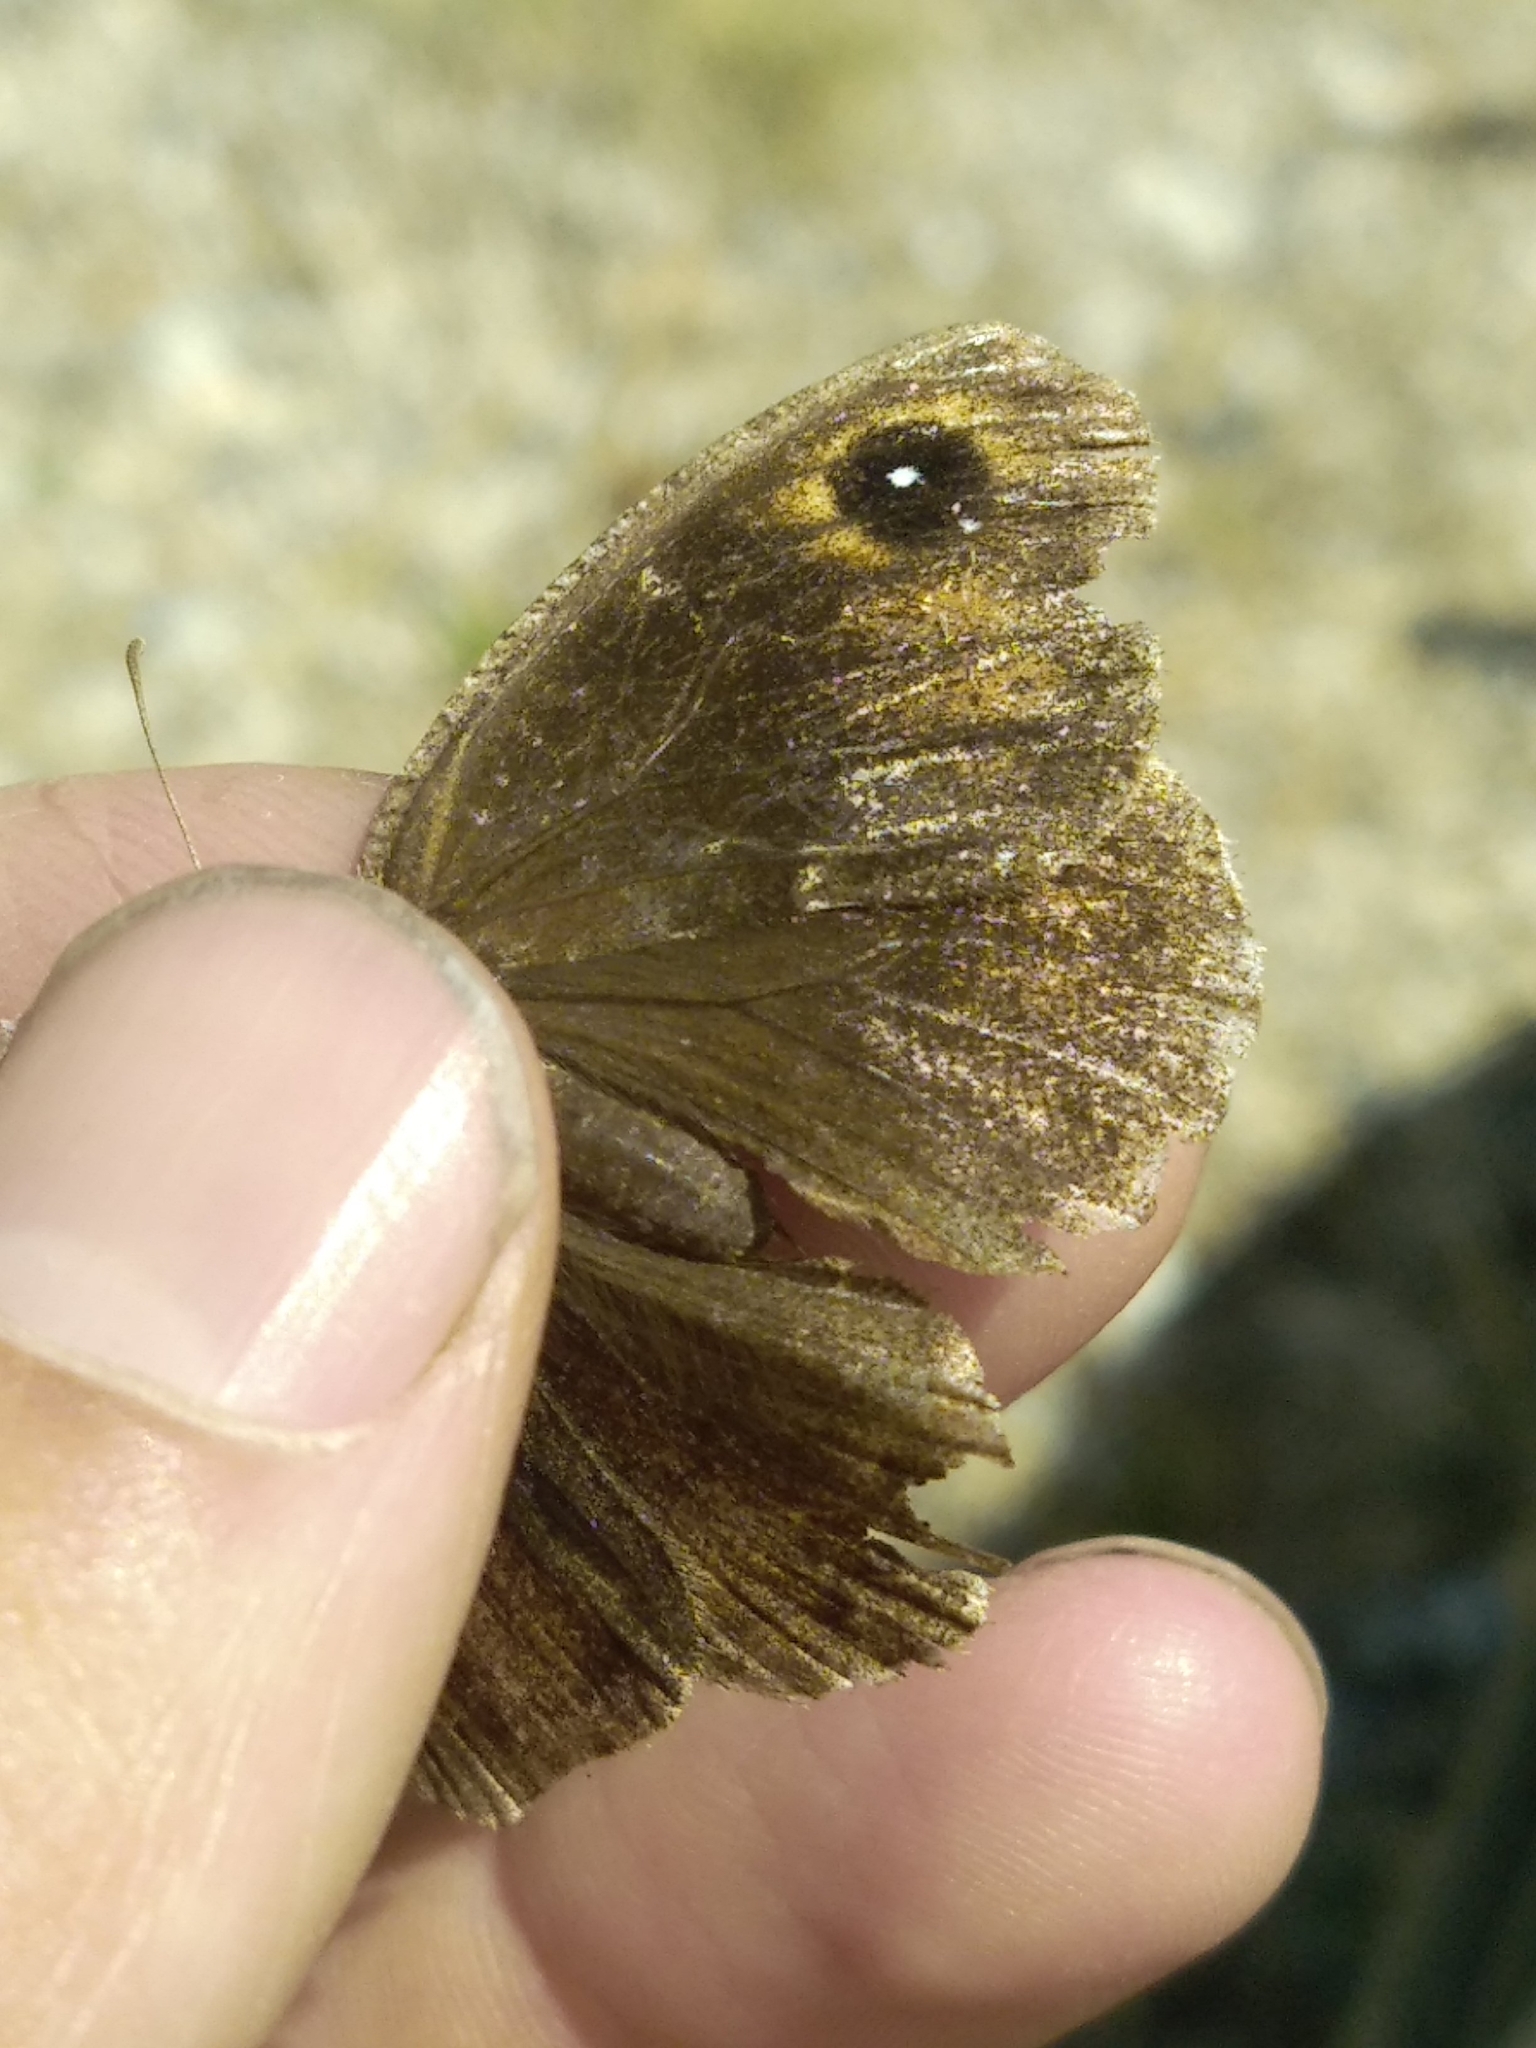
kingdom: Animalia
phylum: Arthropoda
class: Insecta
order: Lepidoptera
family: Nymphalidae
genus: Satyrus
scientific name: Satyrus ferula
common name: Great sooty satyr
